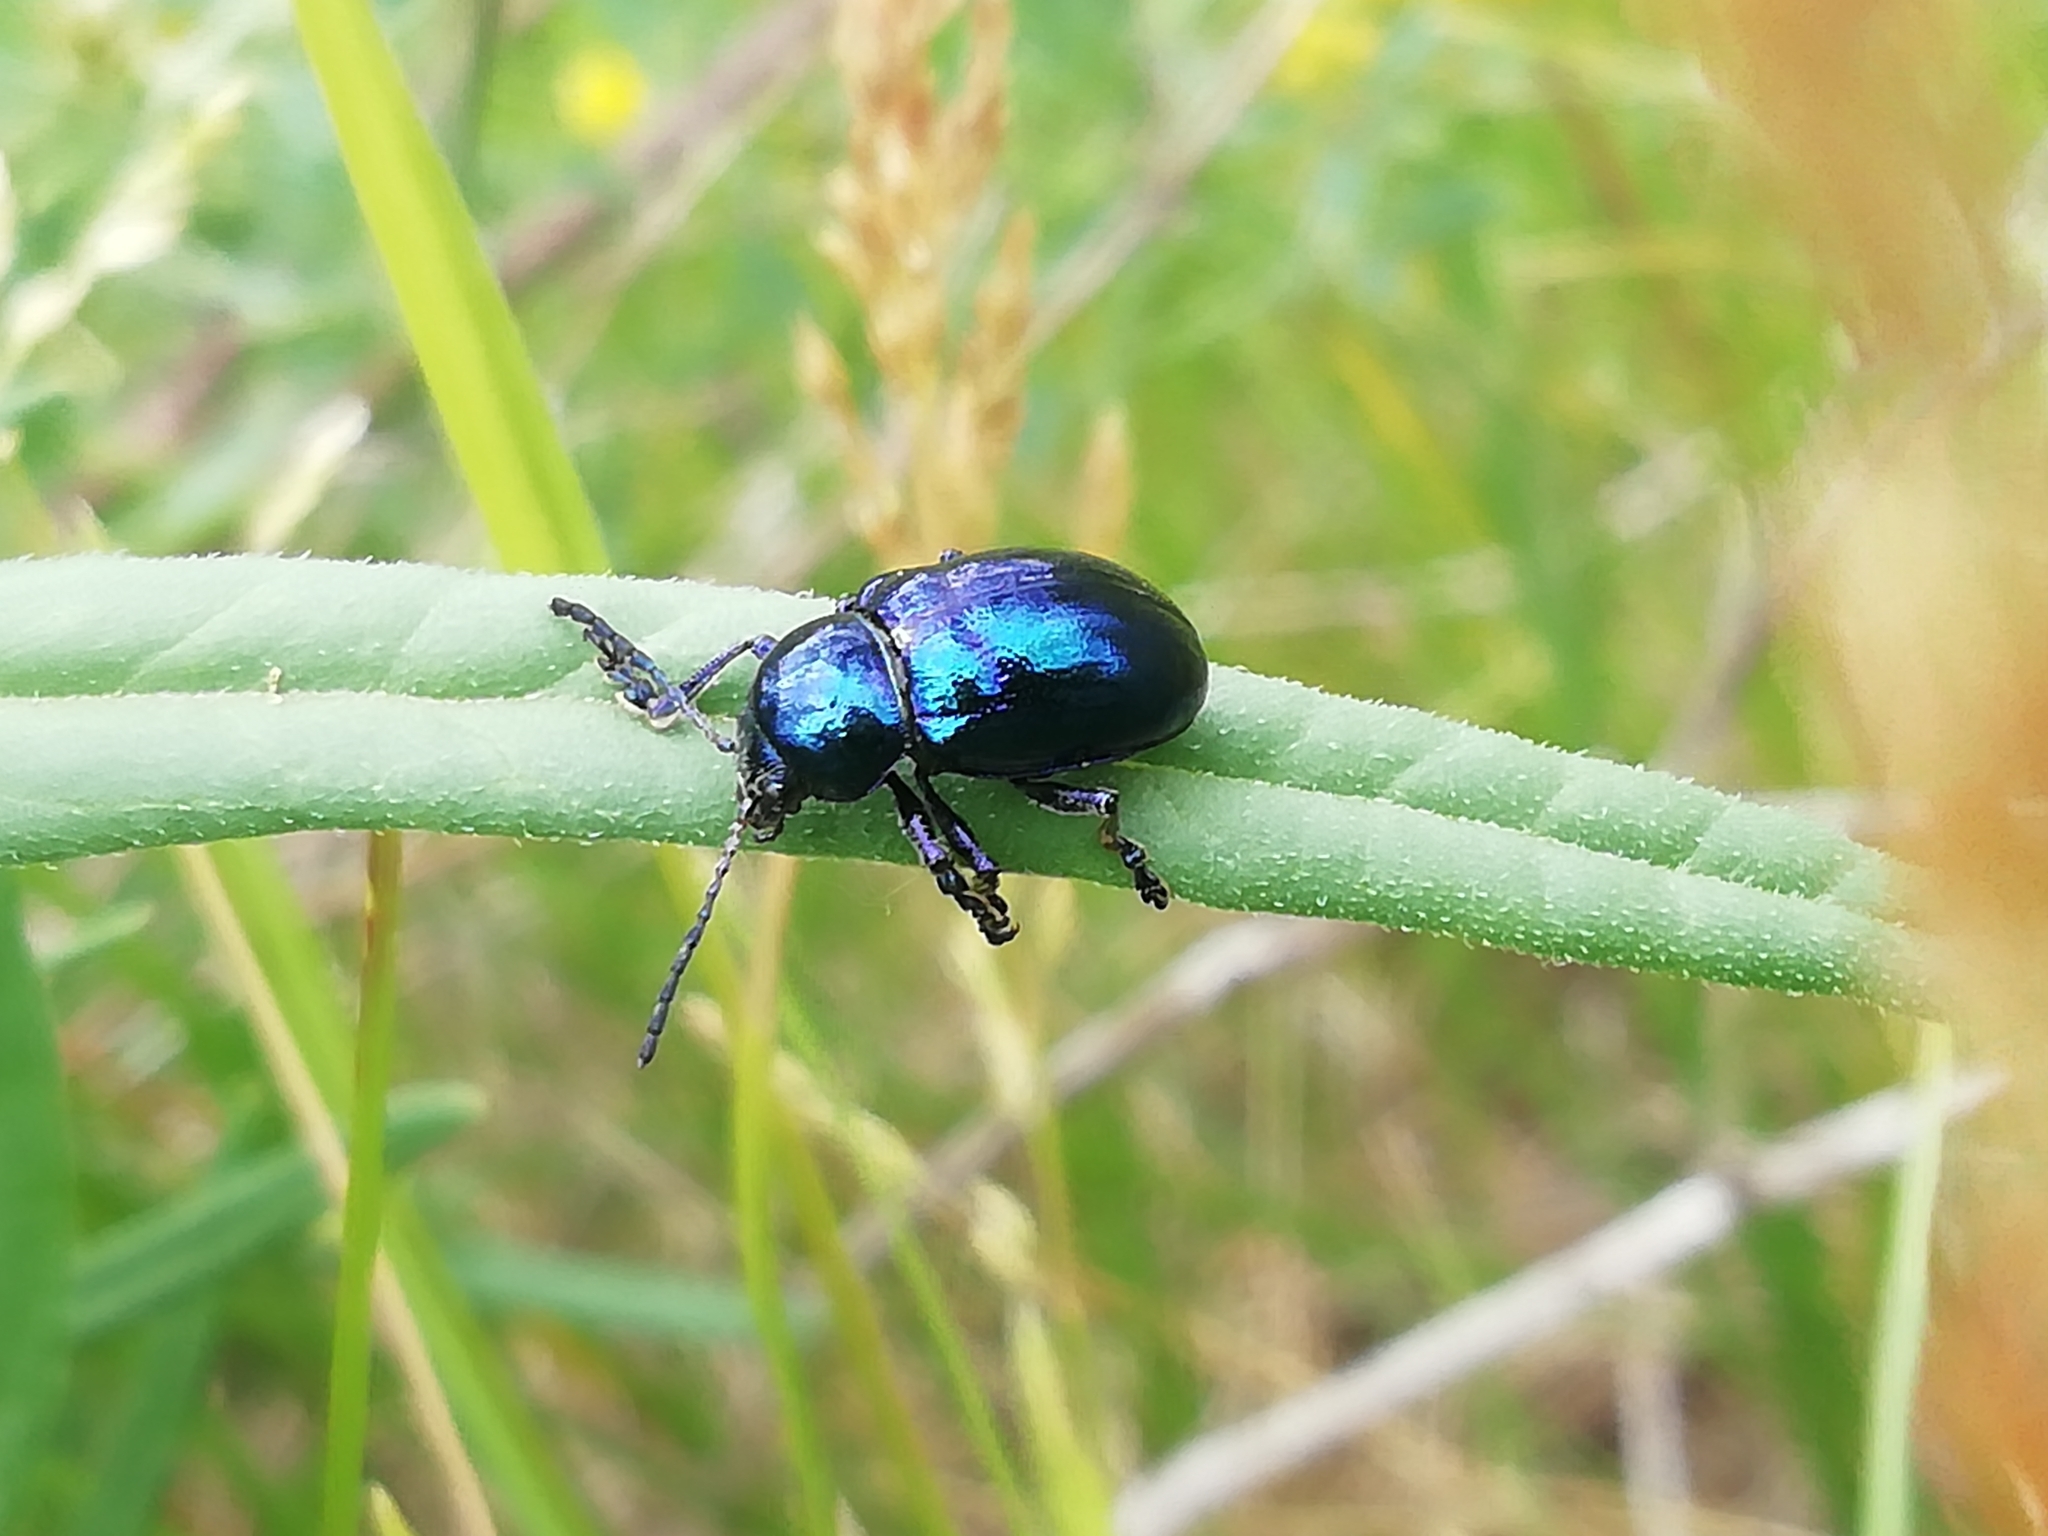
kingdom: Animalia
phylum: Arthropoda
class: Insecta
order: Coleoptera
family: Chrysomelidae
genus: Chrysochus
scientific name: Chrysochus
